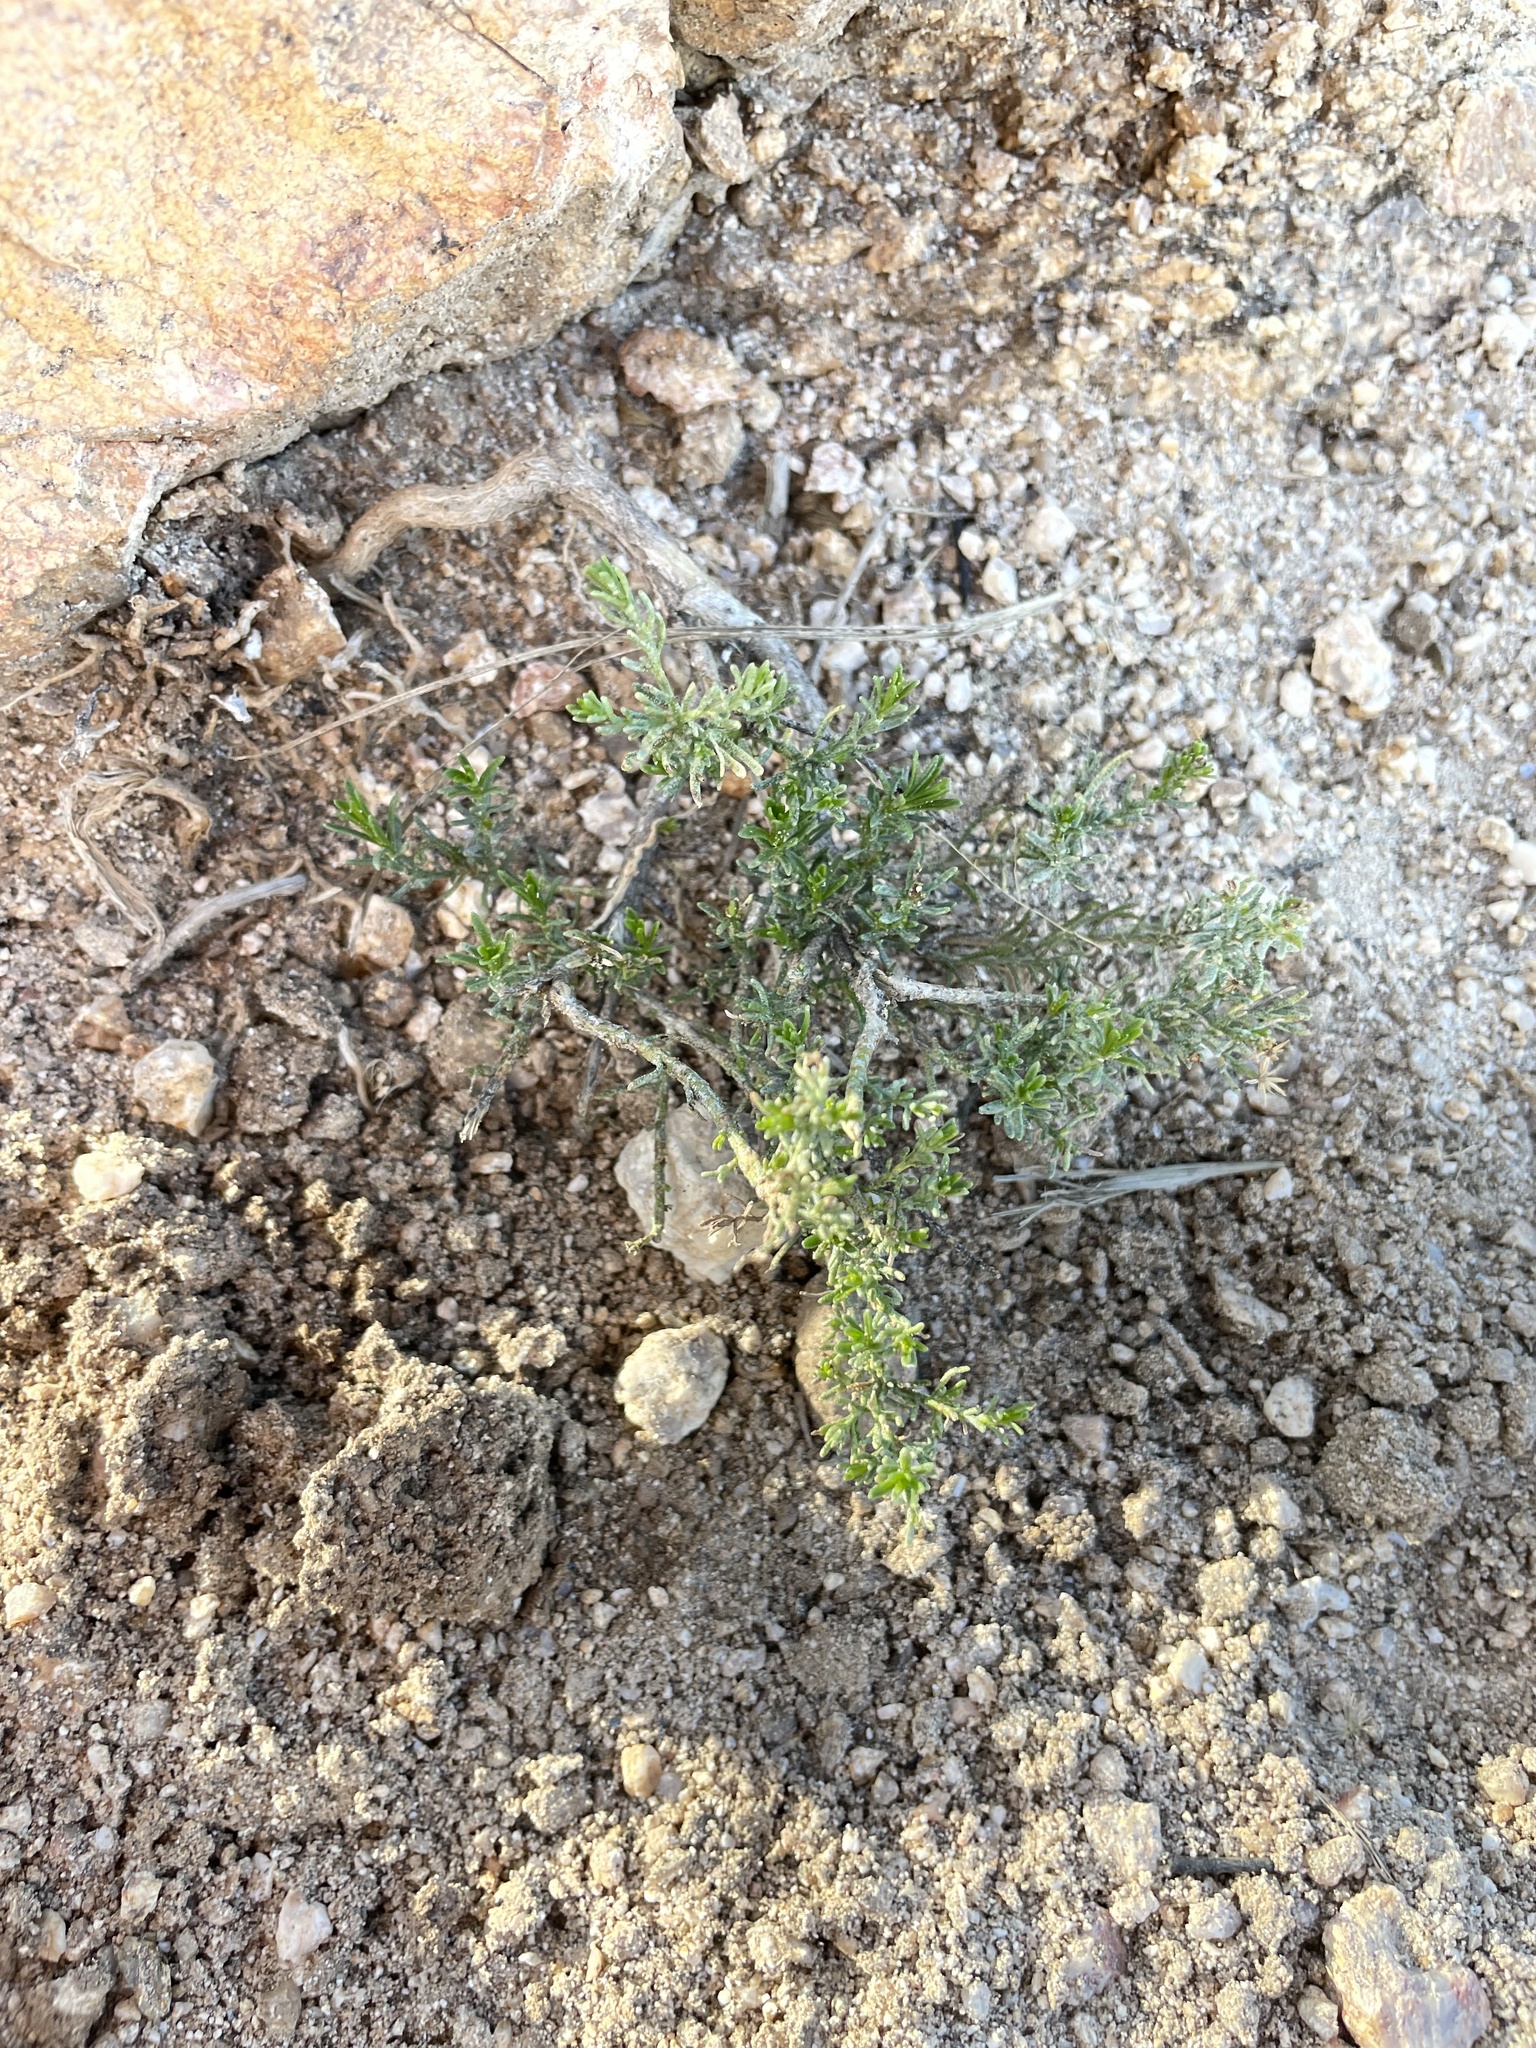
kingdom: Plantae
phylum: Tracheophyta
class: Magnoliopsida
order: Asterales
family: Asteraceae
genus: Ericameria
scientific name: Ericameria laricifolia
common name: Turpentine-bush
